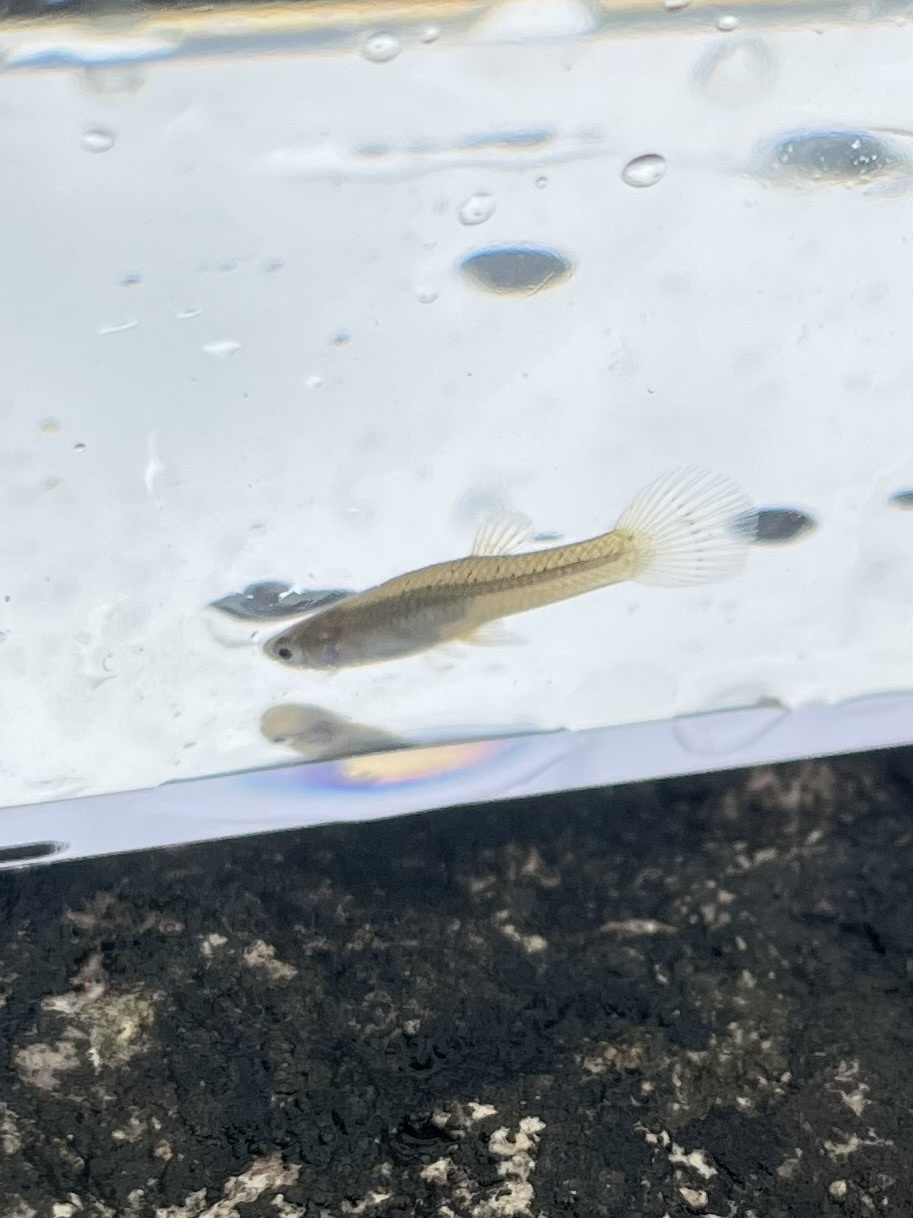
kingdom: Animalia
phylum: Chordata
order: Cyprinodontiformes
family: Poeciliidae
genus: Gambusia
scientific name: Gambusia affinis
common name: Mosquitofish
